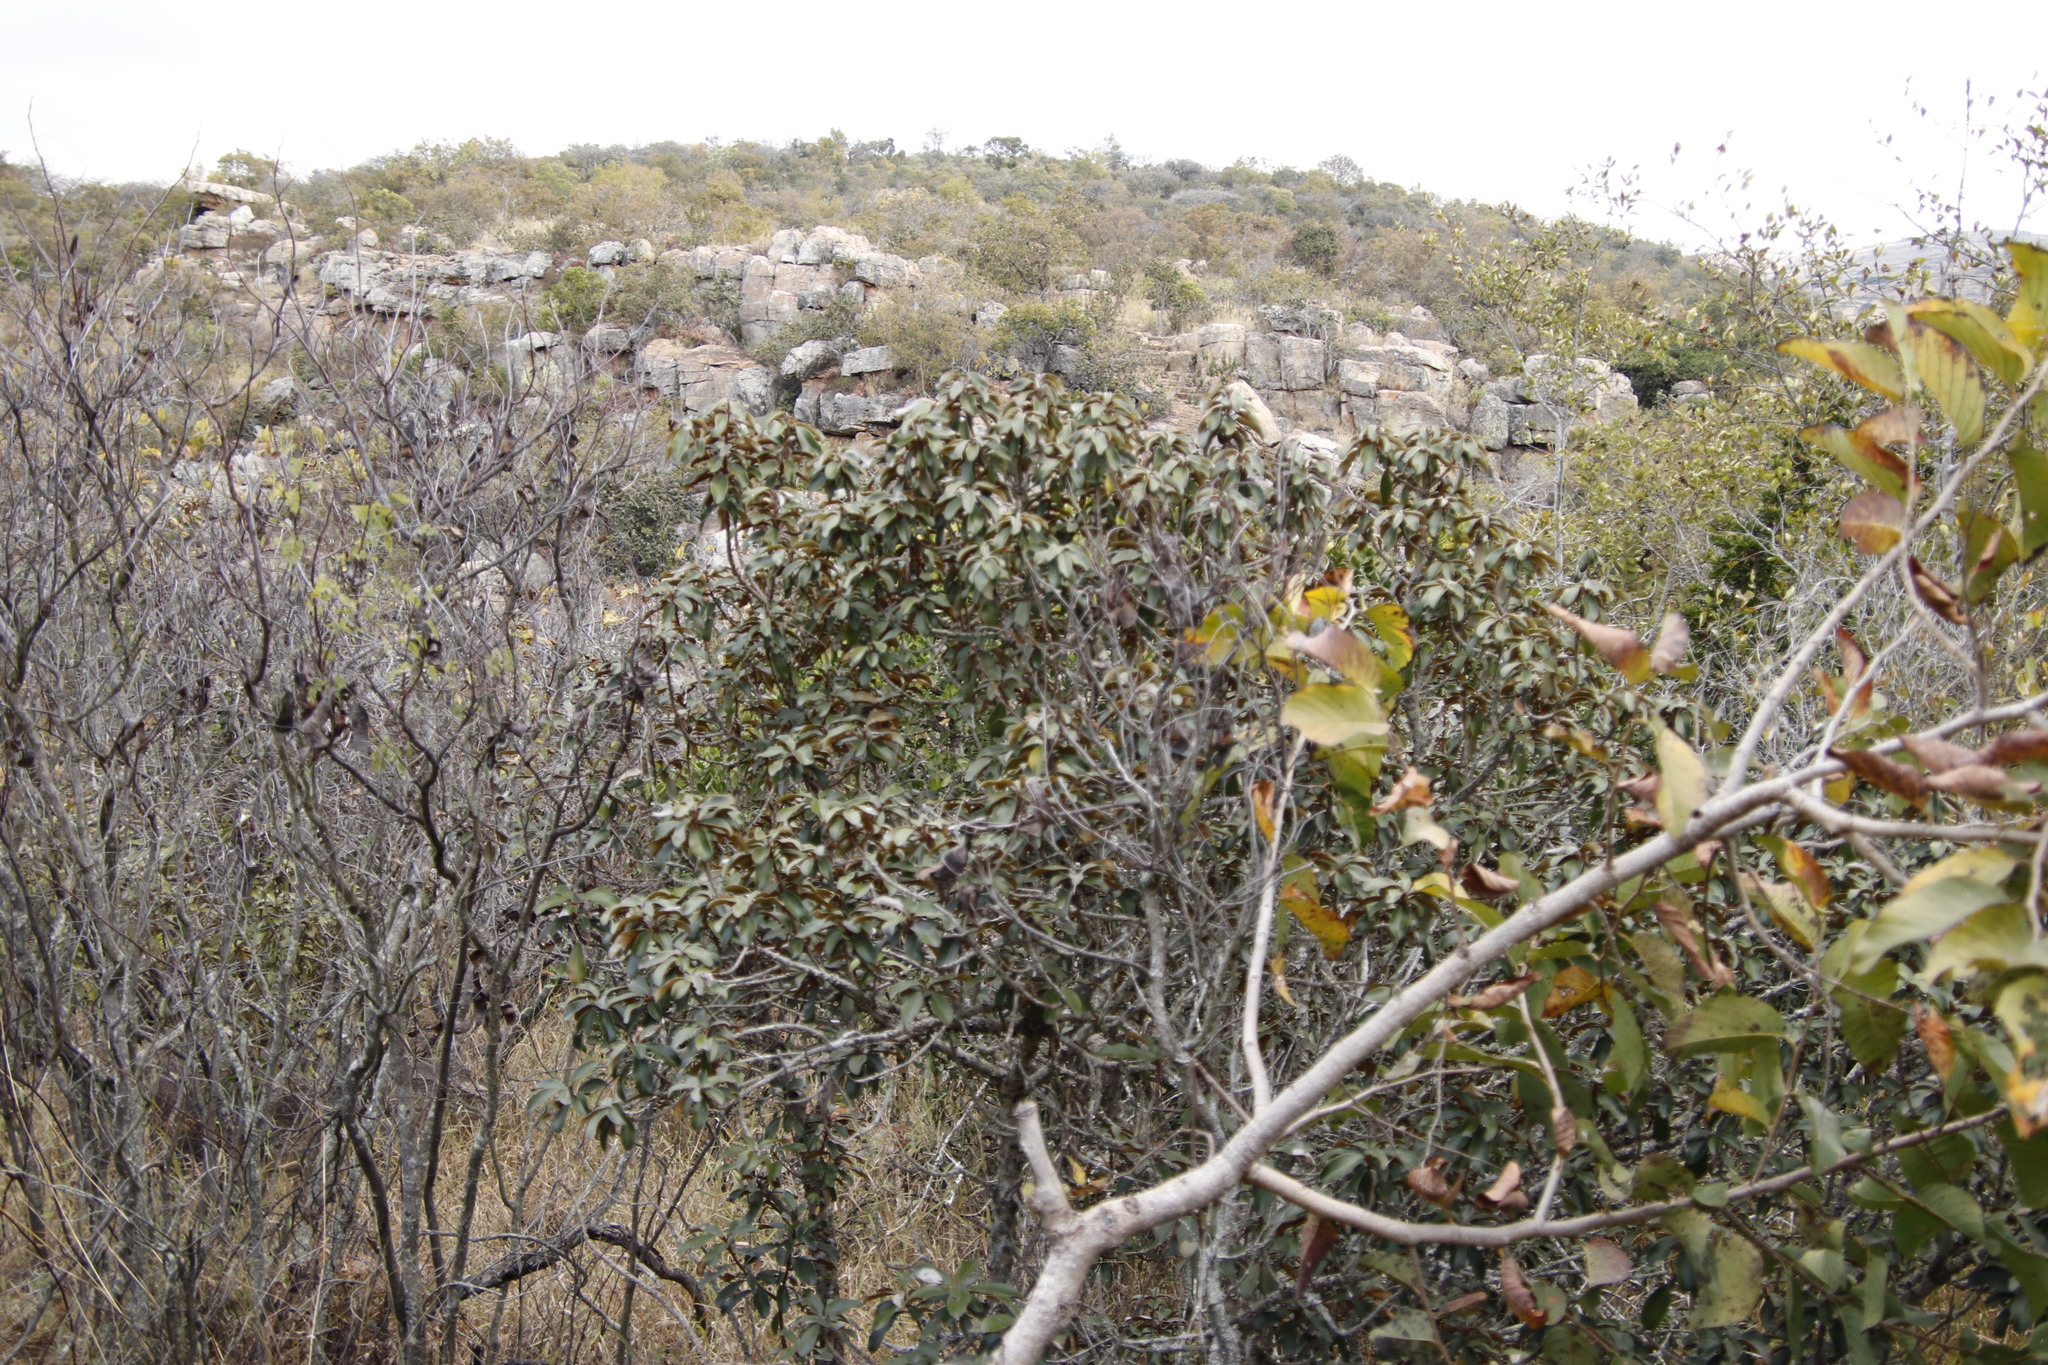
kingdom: Plantae
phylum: Tracheophyta
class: Magnoliopsida
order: Ericales
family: Sapotaceae
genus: Englerophytum
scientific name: Englerophytum magalismontanum
